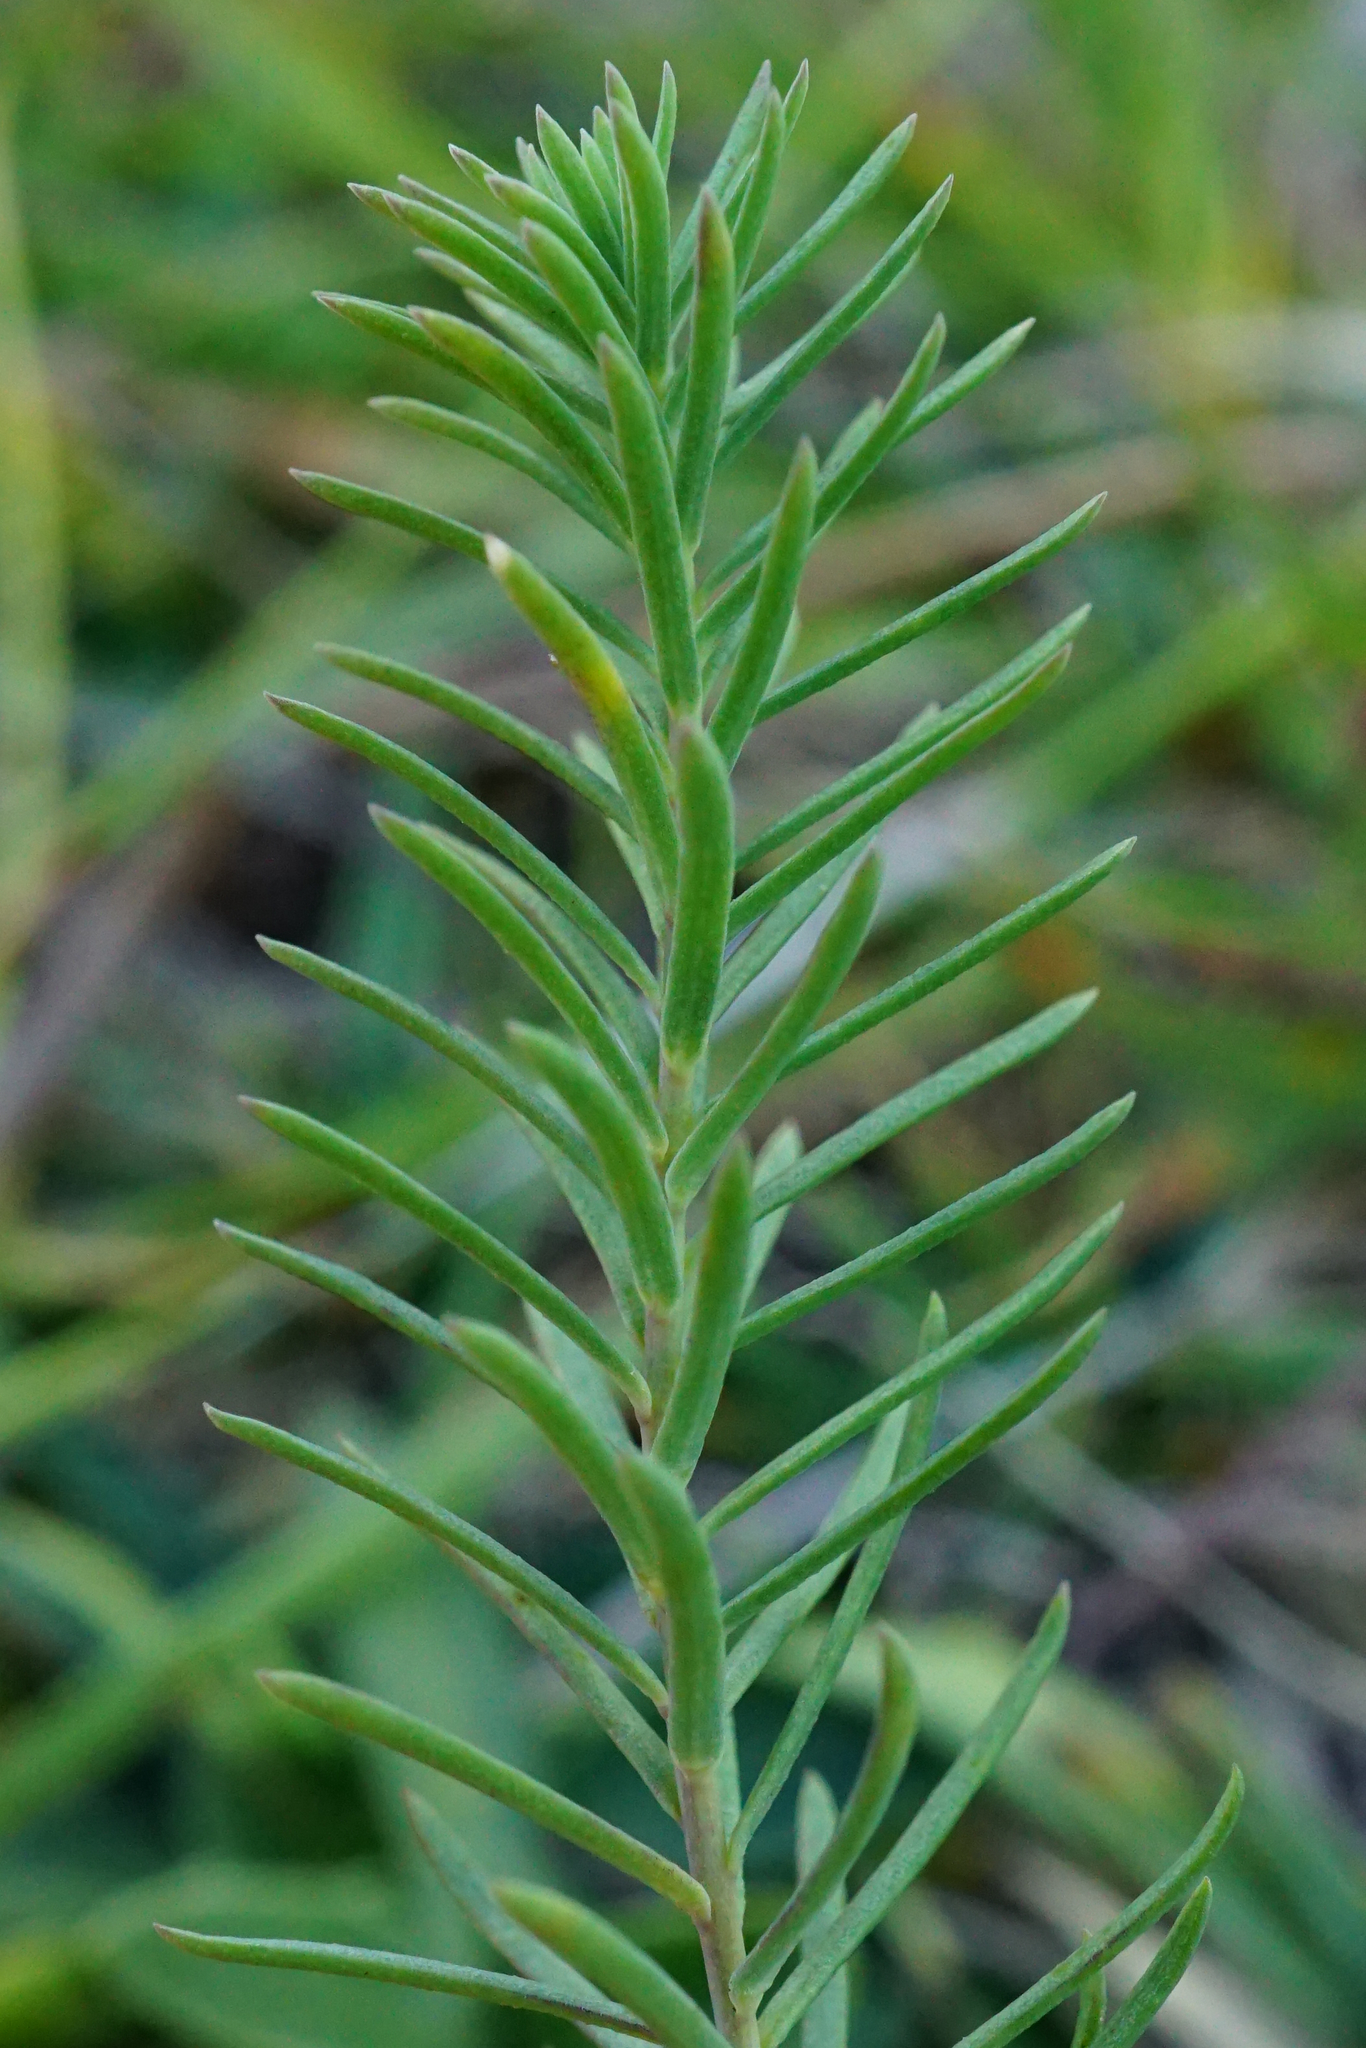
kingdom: Plantae
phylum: Tracheophyta
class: Magnoliopsida
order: Malpighiales
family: Linaceae
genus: Linum
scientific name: Linum alpinum
